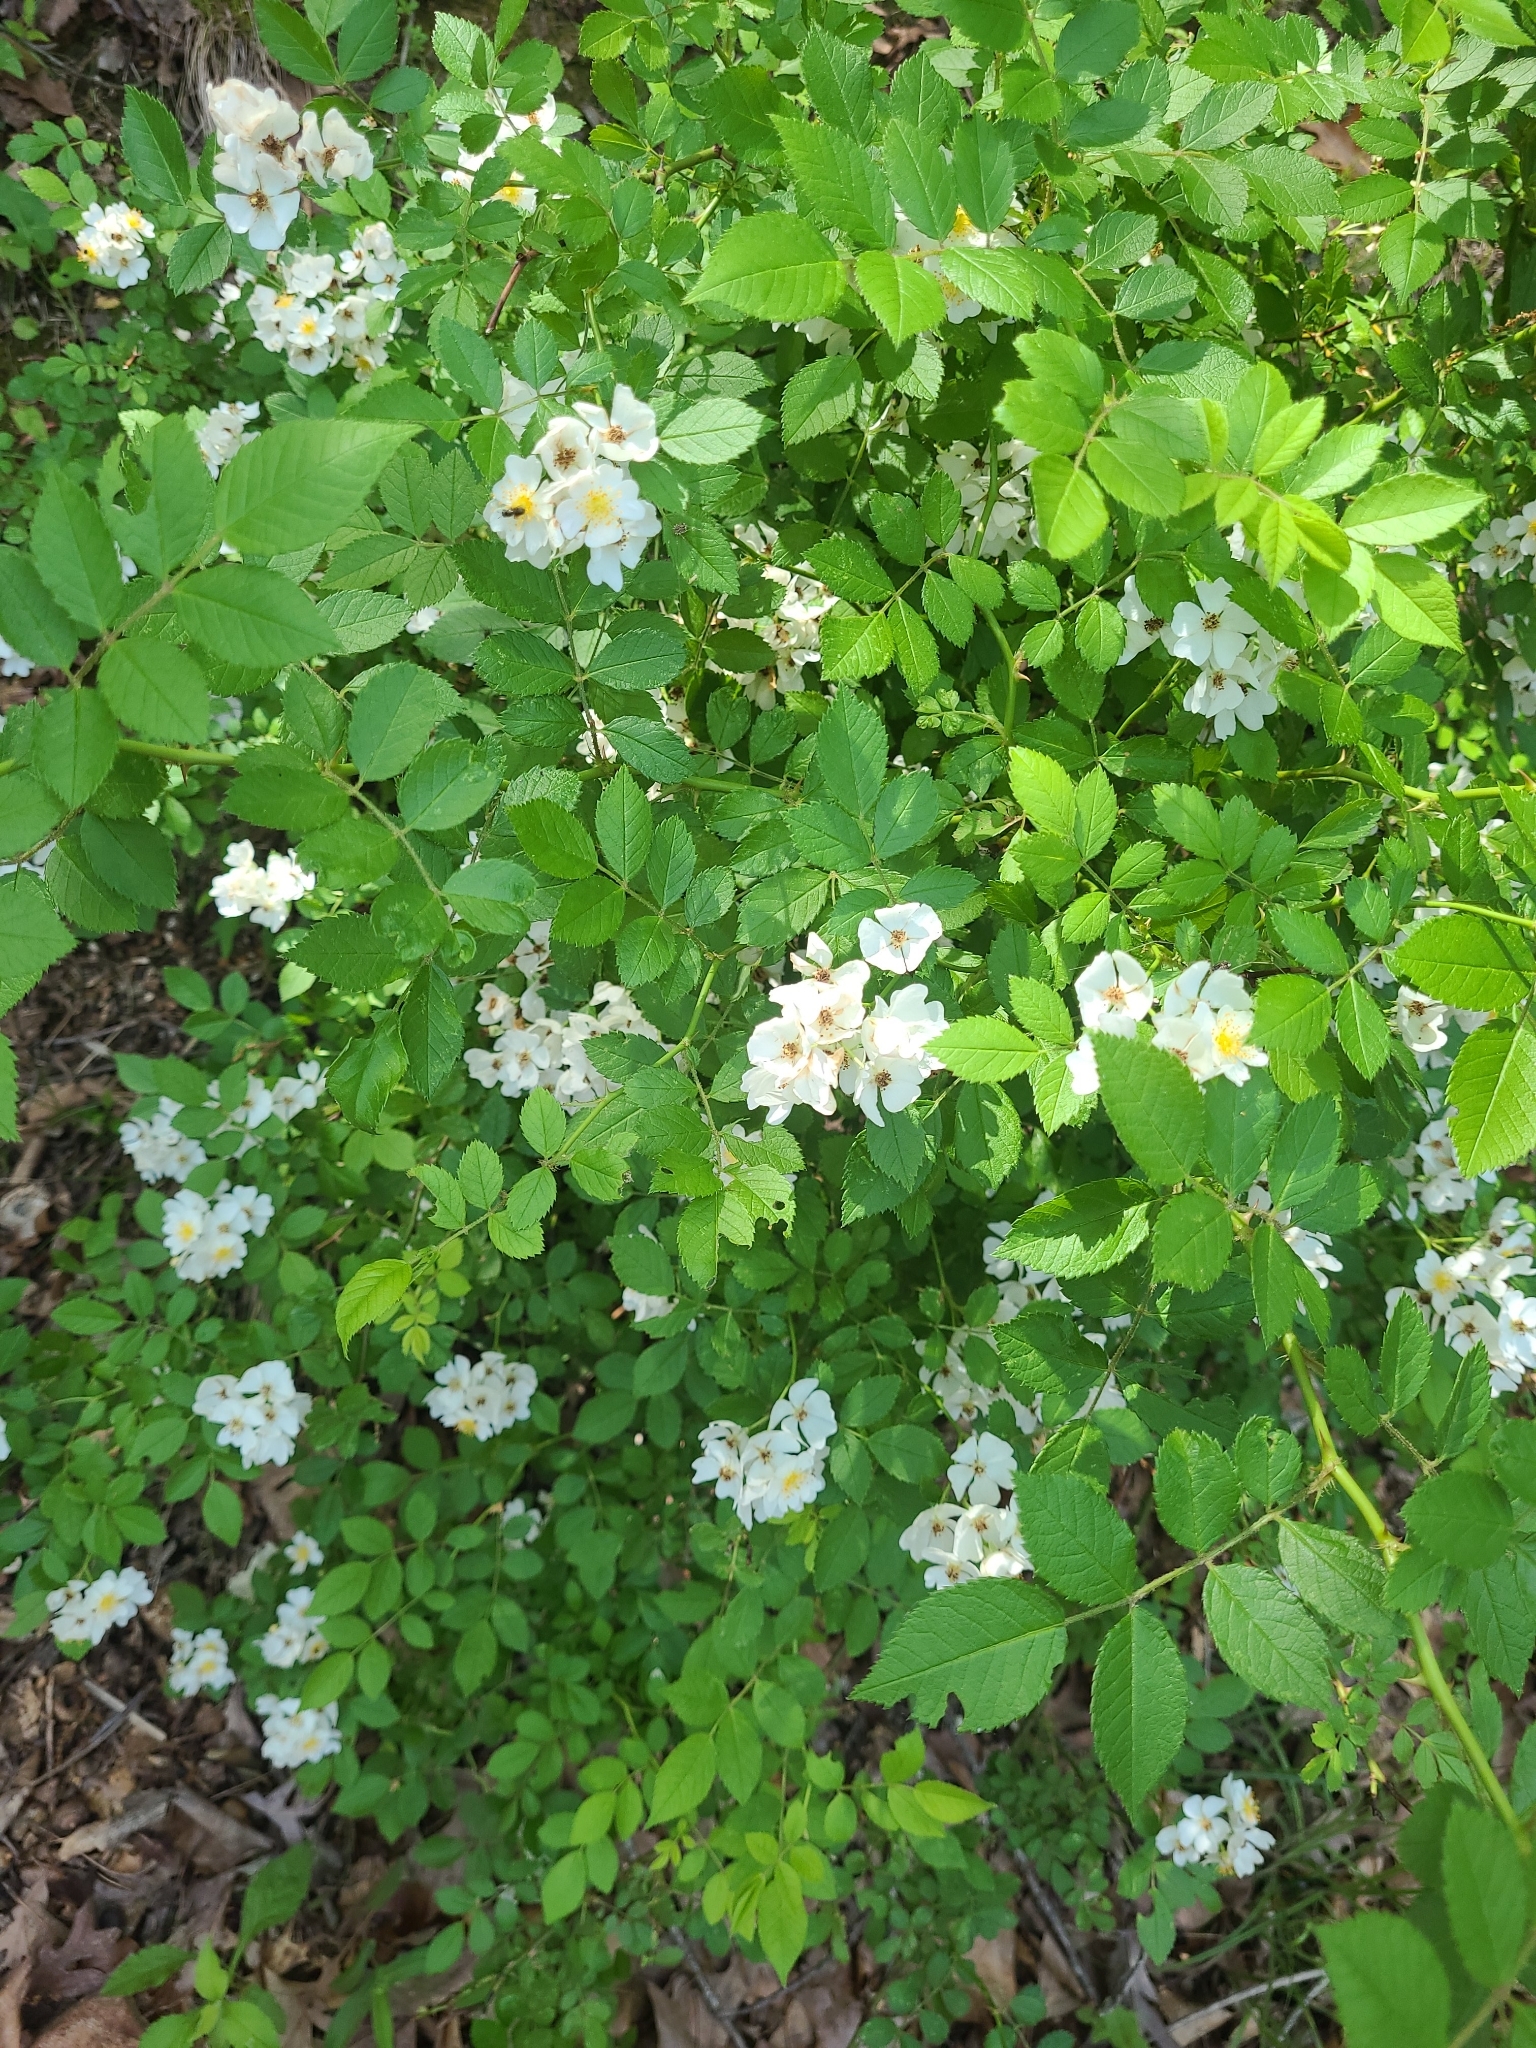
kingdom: Plantae
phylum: Tracheophyta
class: Magnoliopsida
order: Rosales
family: Rosaceae
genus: Rosa
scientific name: Rosa multiflora
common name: Multiflora rose
